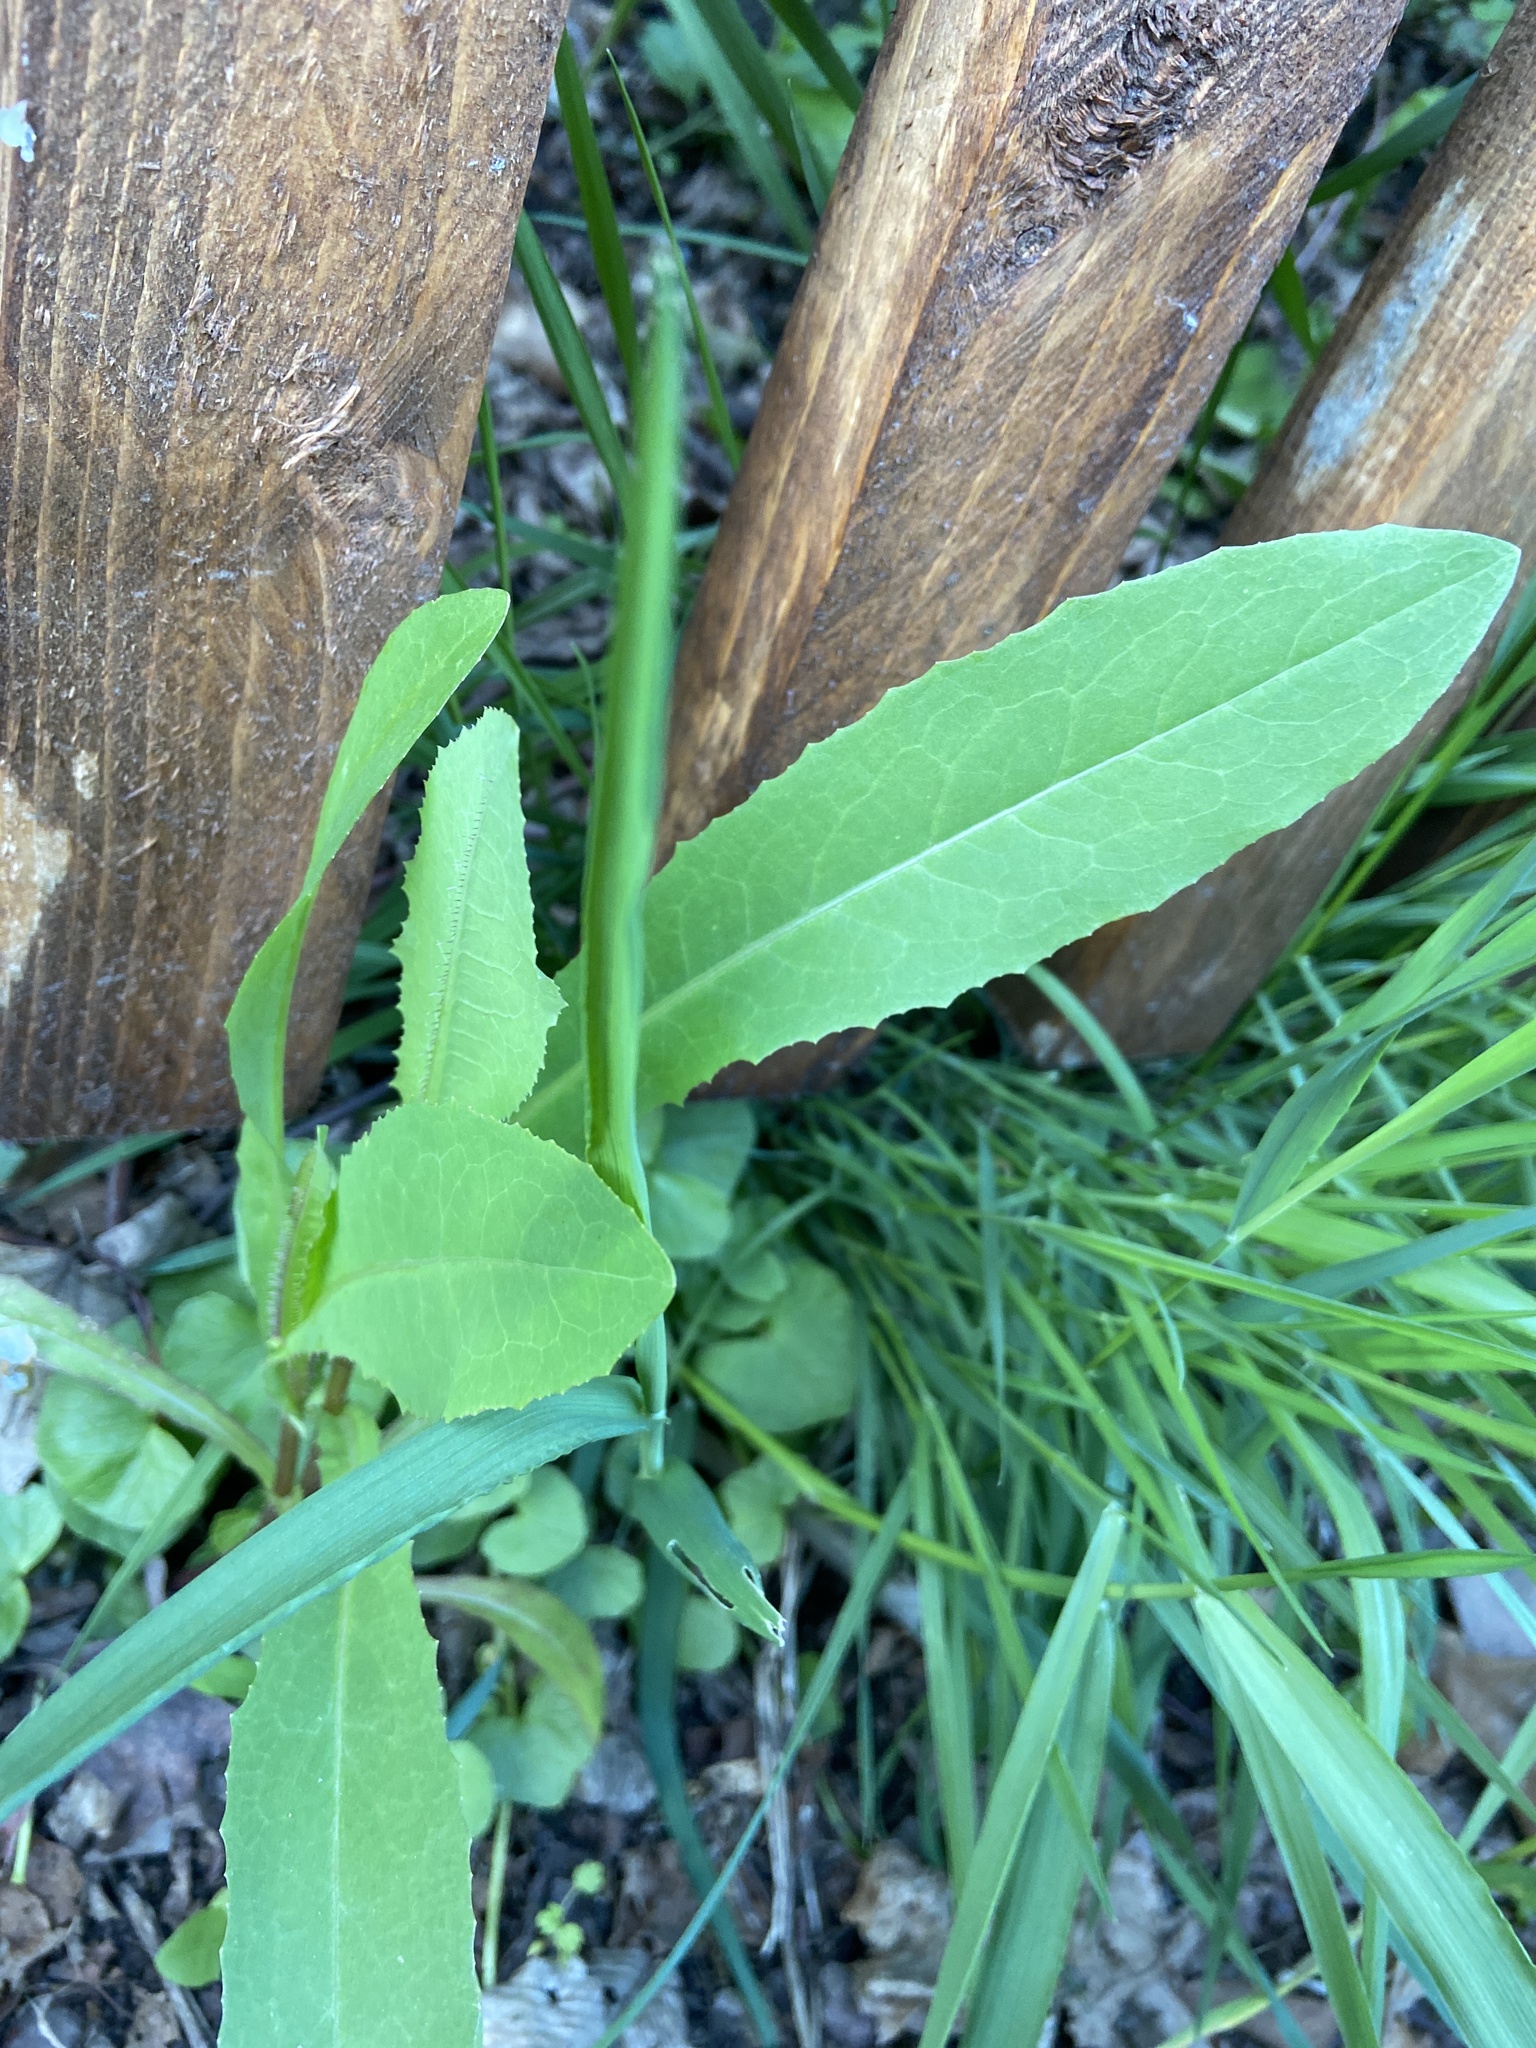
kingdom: Plantae
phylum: Tracheophyta
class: Magnoliopsida
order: Asterales
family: Asteraceae
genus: Lactuca
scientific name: Lactuca serriola
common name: Prickly lettuce
